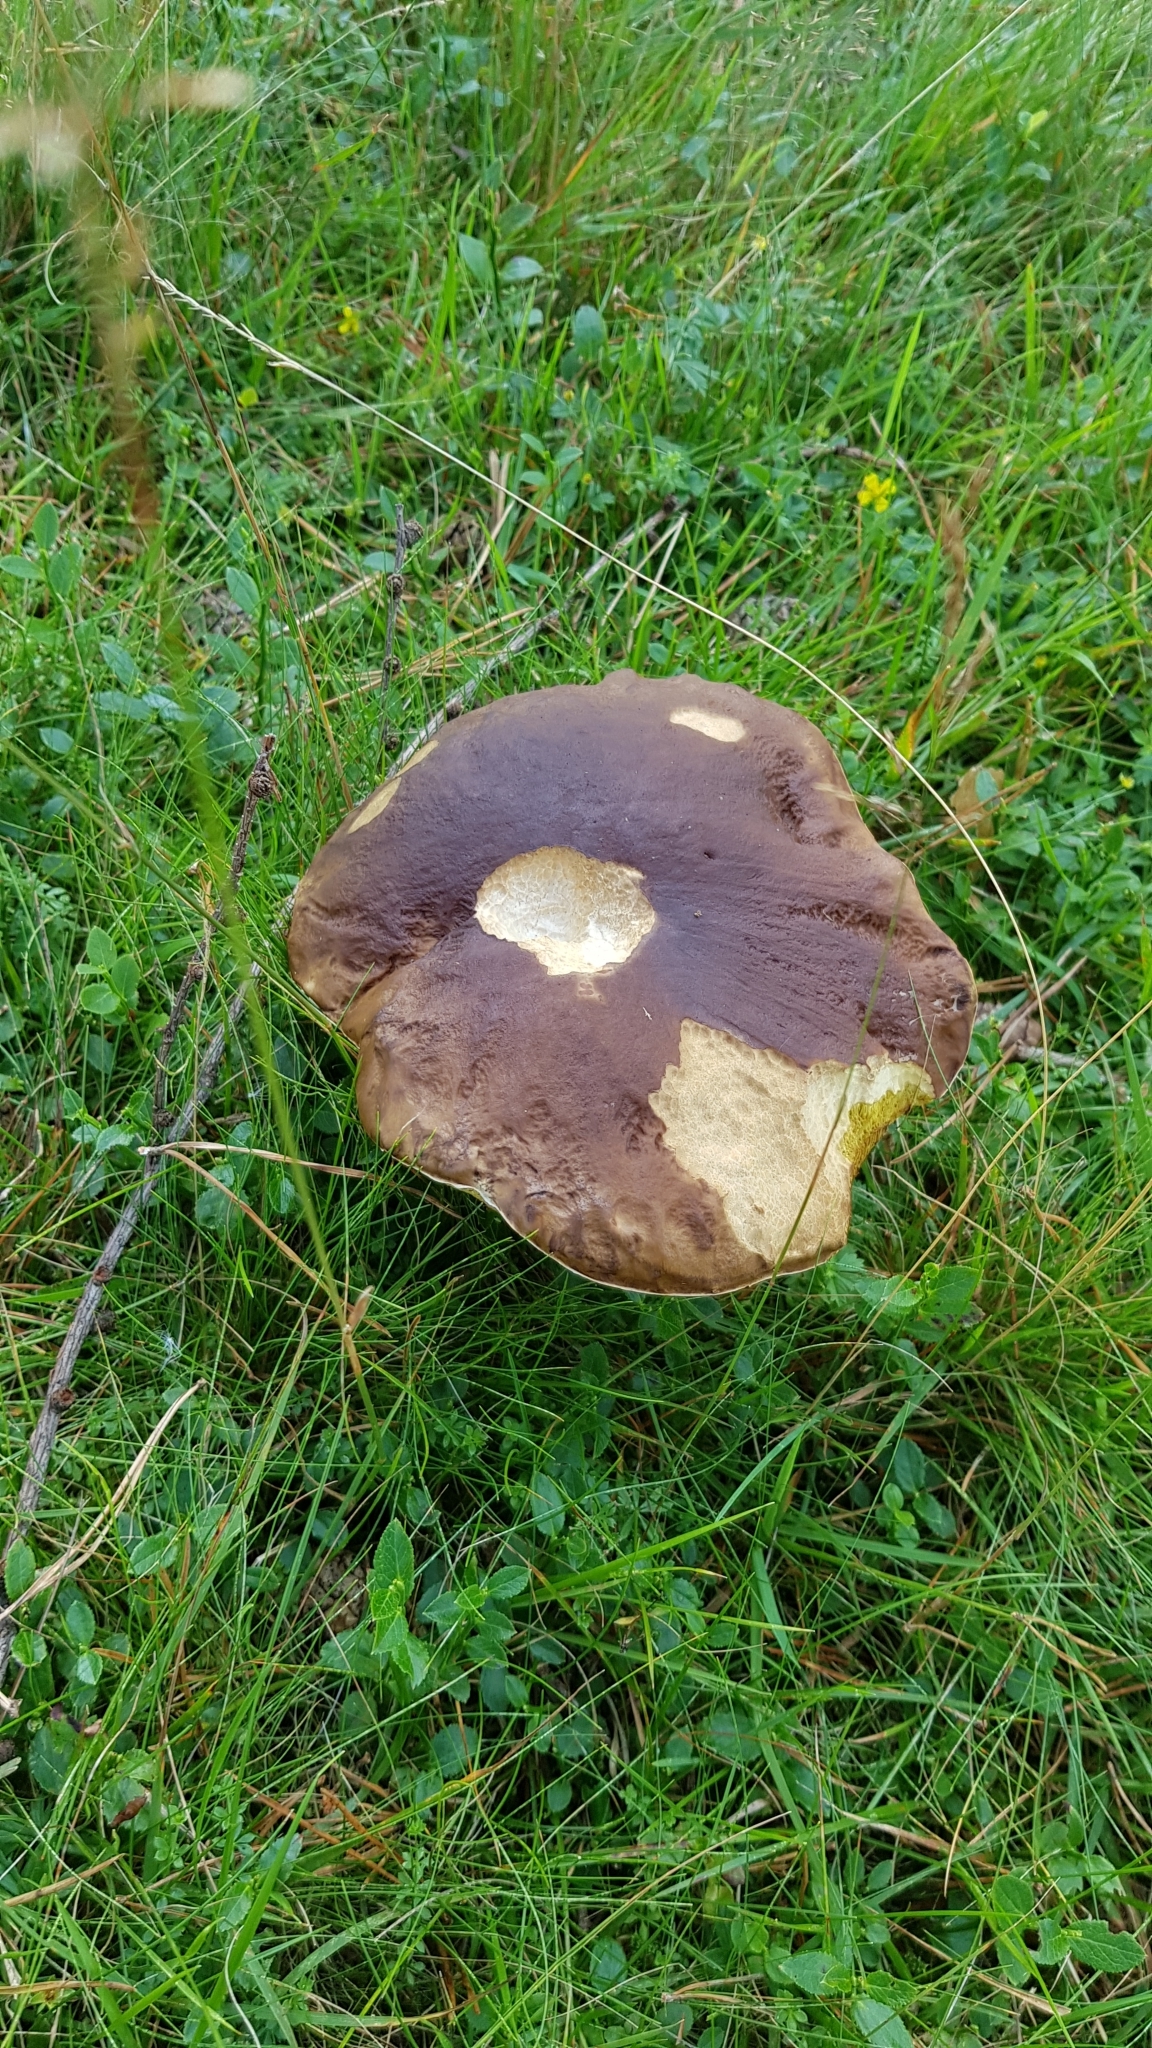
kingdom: Fungi
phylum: Basidiomycota
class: Agaricomycetes
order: Boletales
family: Boletaceae
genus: Boletus
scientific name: Boletus pinophilus
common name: Pine bolete
